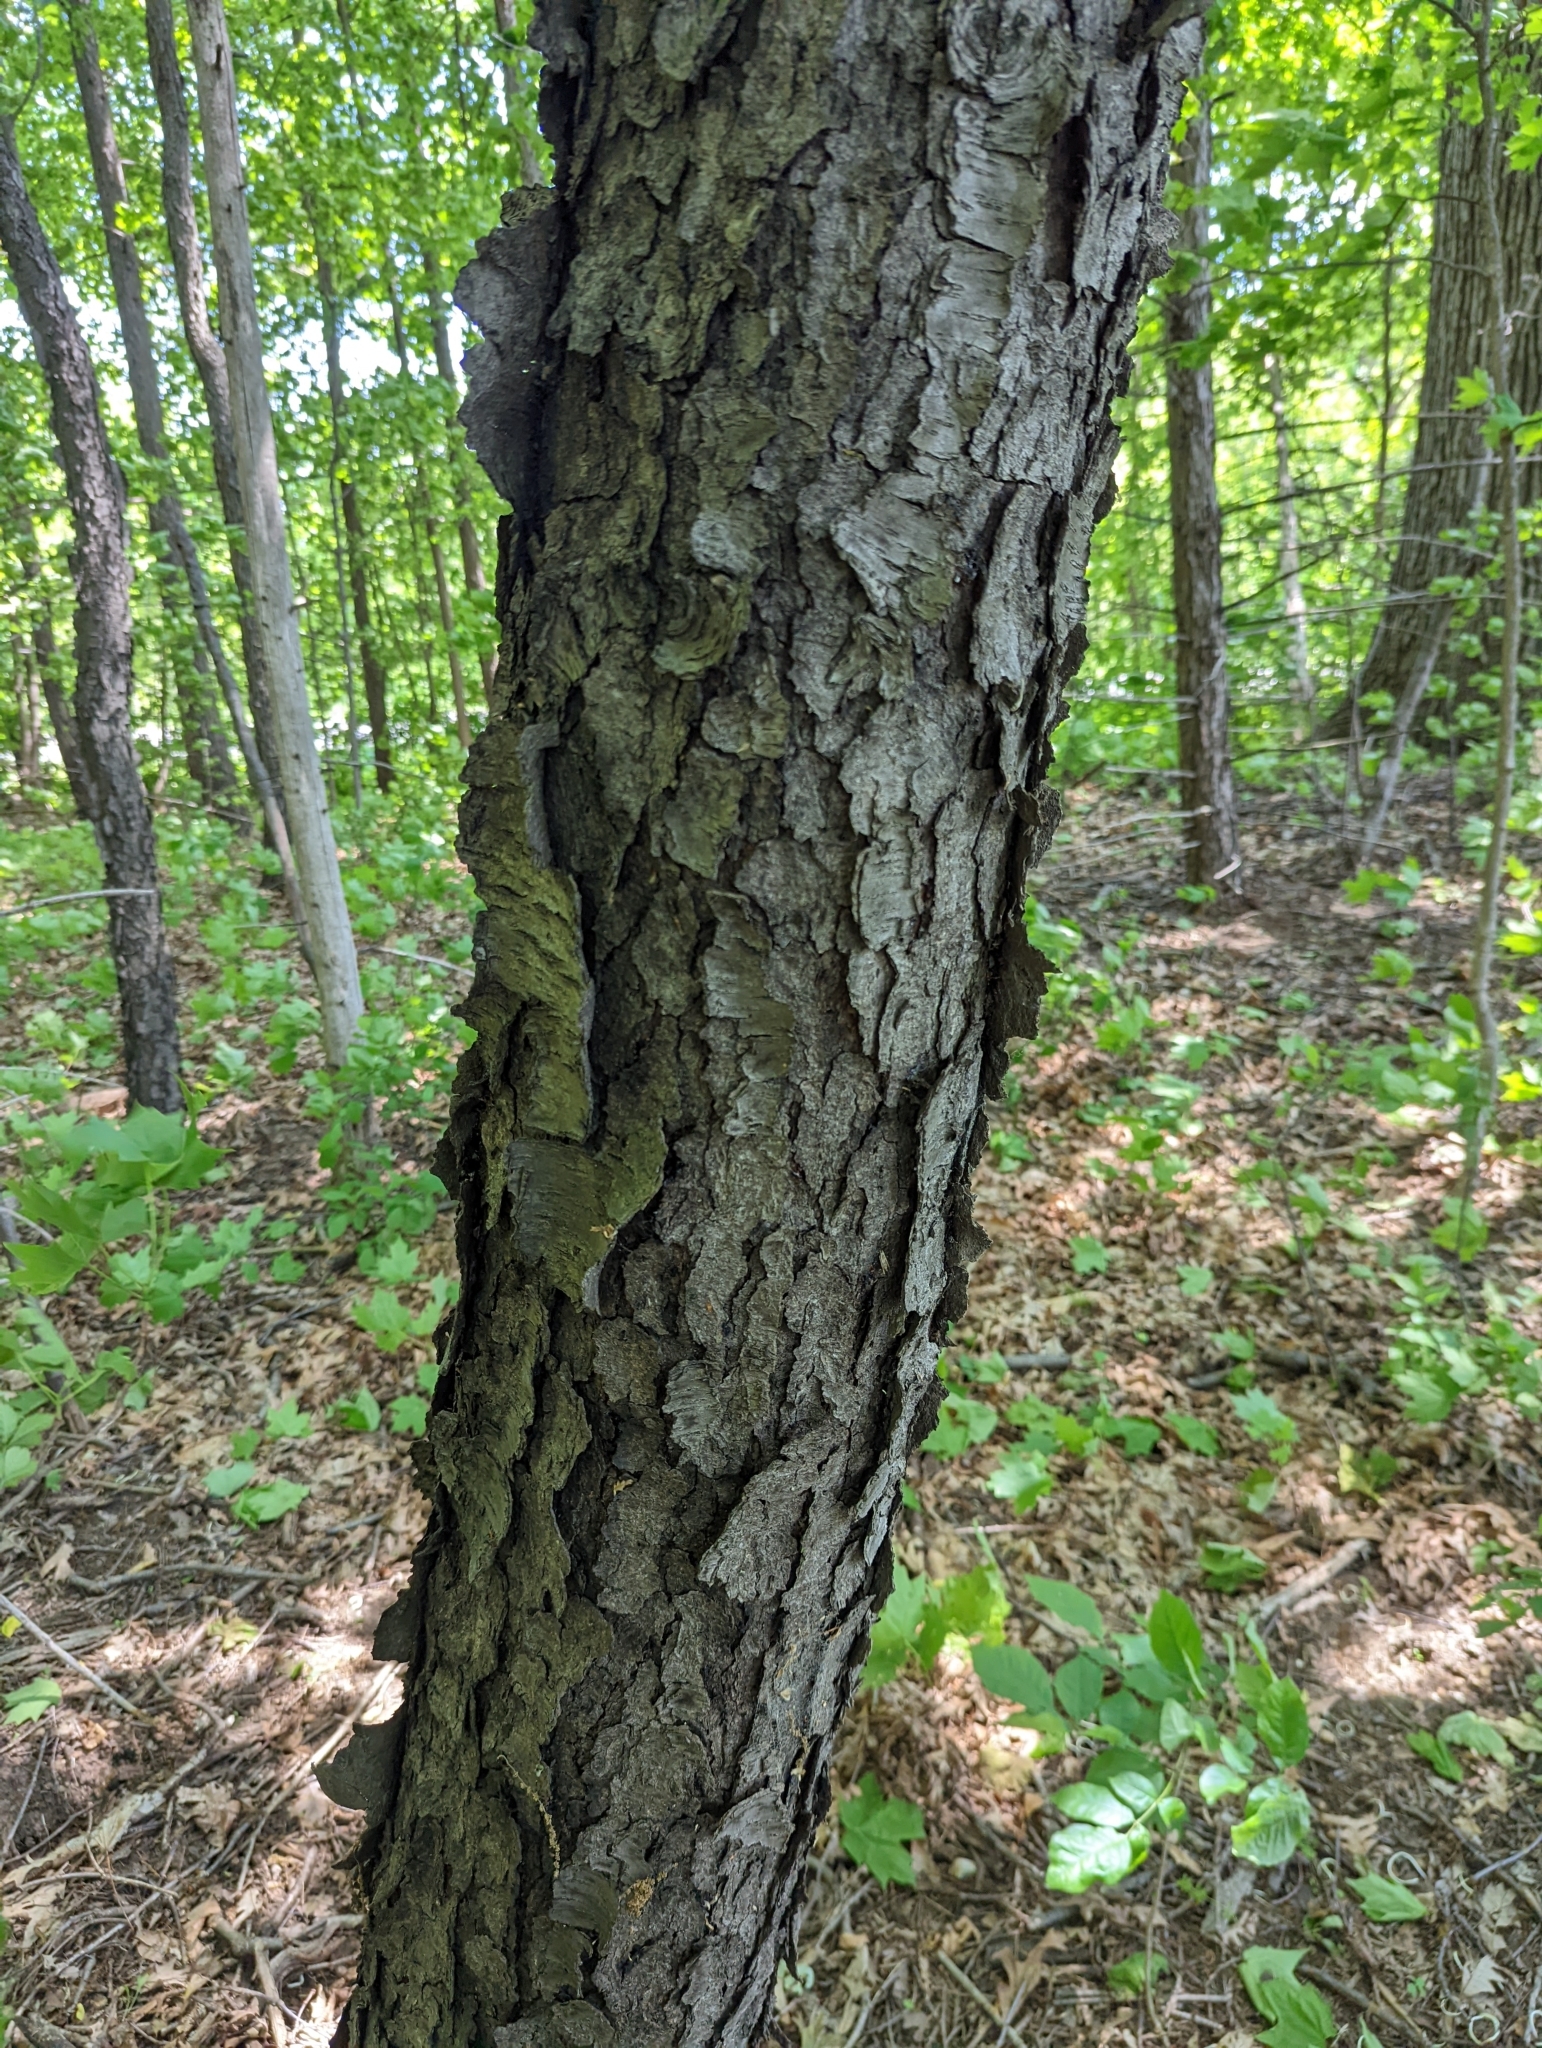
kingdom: Plantae
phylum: Tracheophyta
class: Magnoliopsida
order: Rosales
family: Rosaceae
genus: Prunus
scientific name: Prunus serotina
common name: Black cherry
